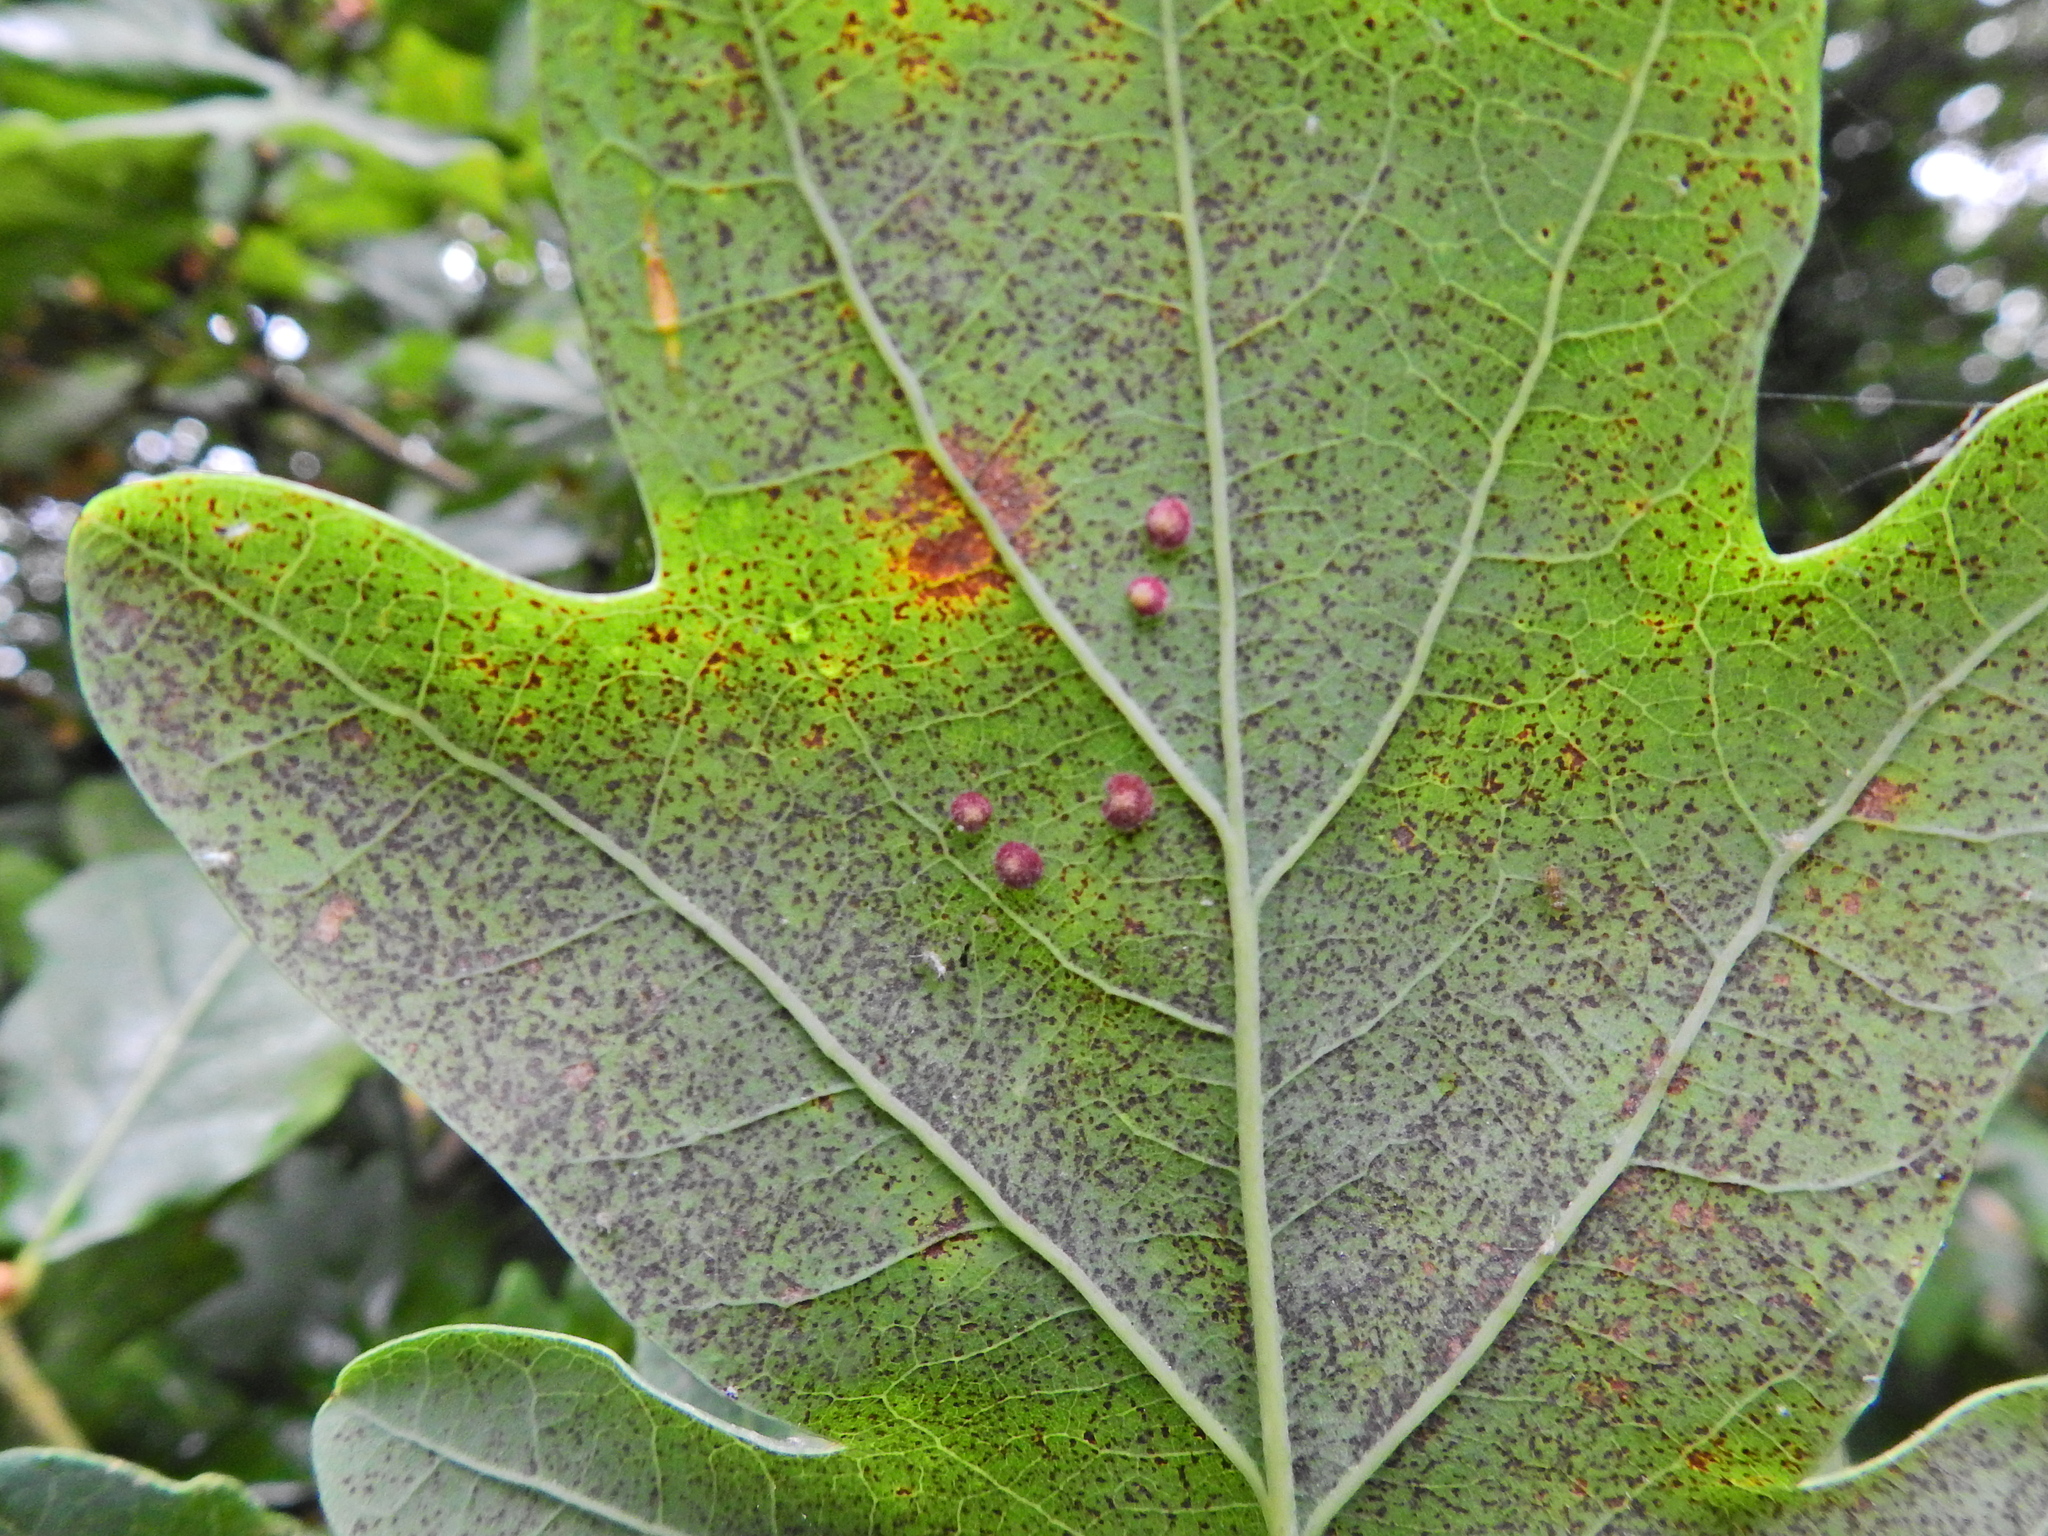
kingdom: Animalia
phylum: Arthropoda
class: Insecta
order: Hymenoptera
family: Cynipidae
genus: Neuroterus
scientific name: Neuroterus quercusbaccarum
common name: Common spangle gall
